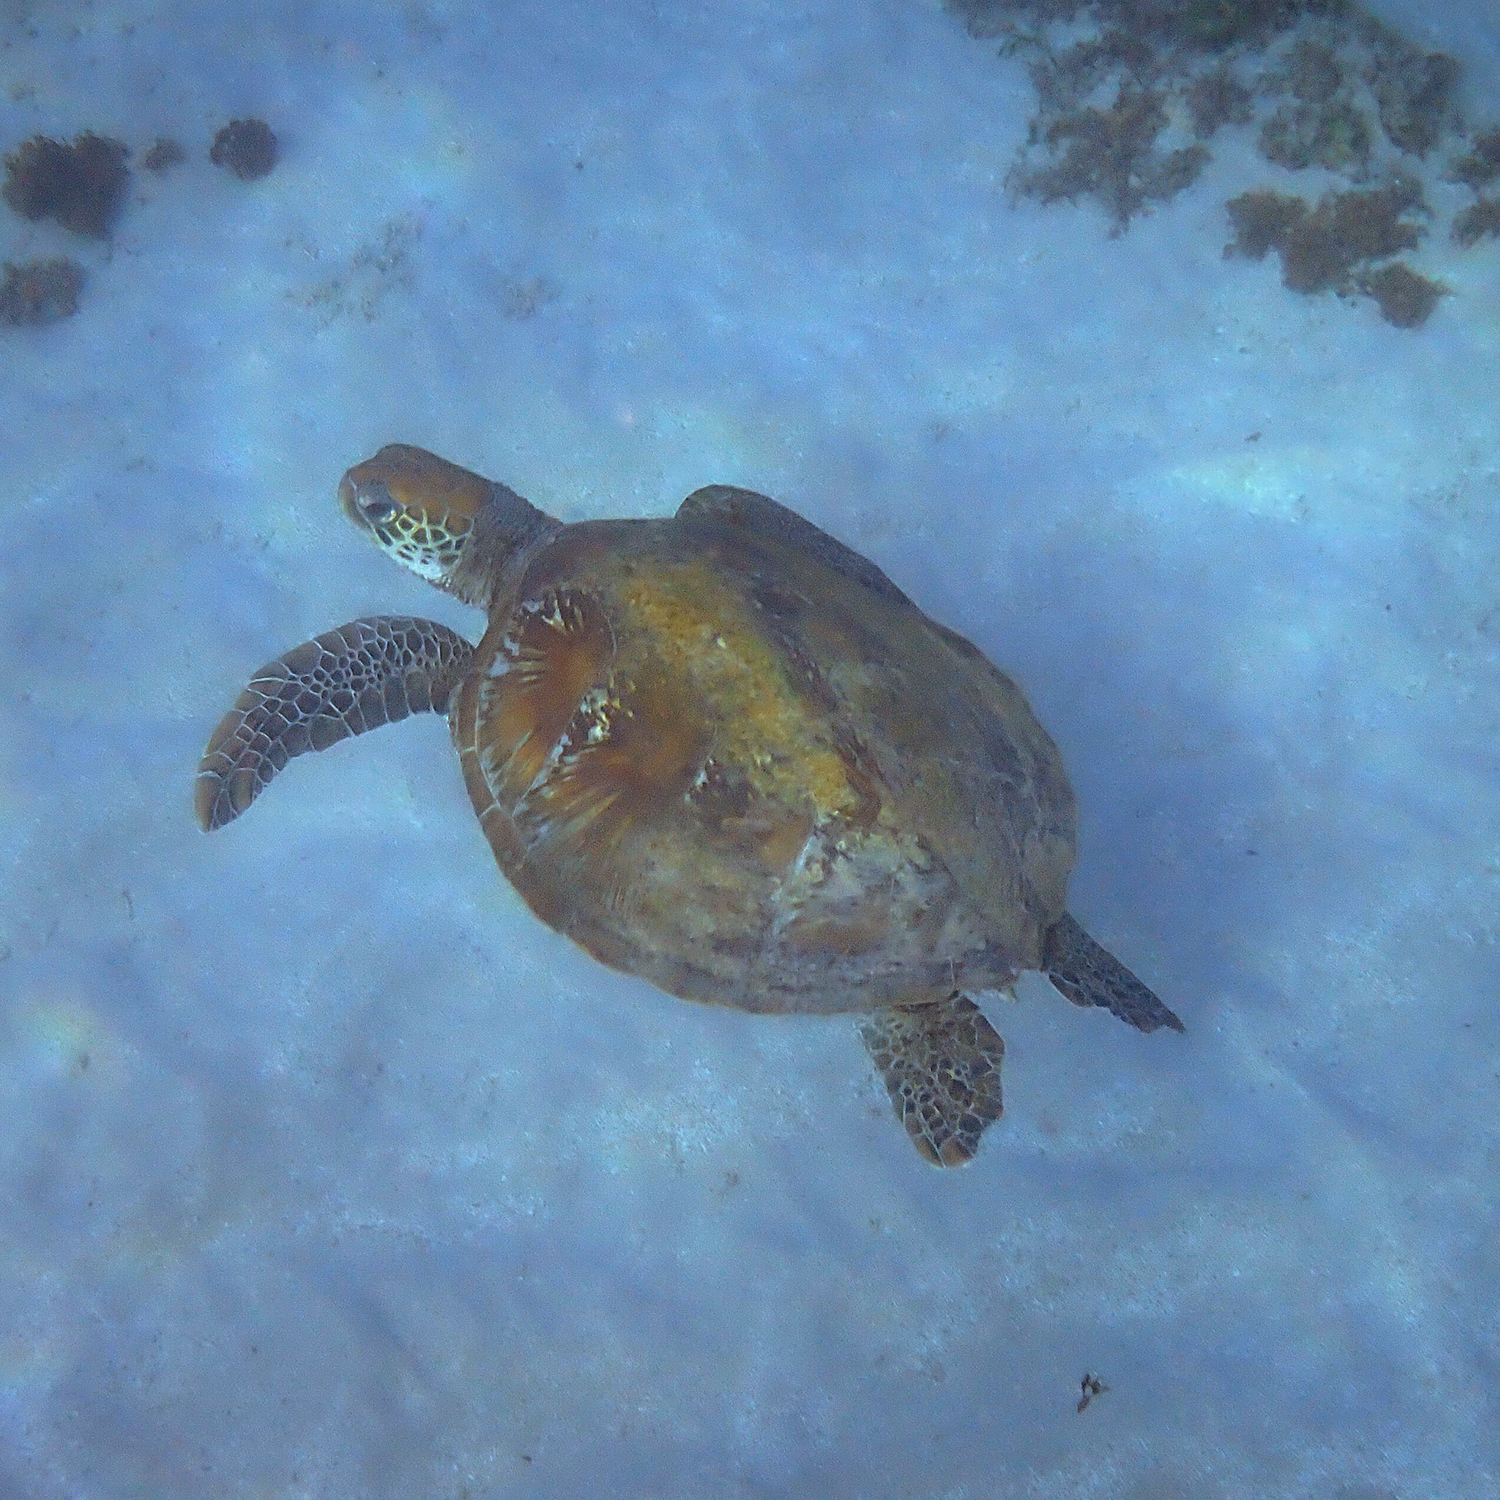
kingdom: Animalia
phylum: Chordata
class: Testudines
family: Cheloniidae
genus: Chelonia
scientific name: Chelonia mydas
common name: Green turtle
